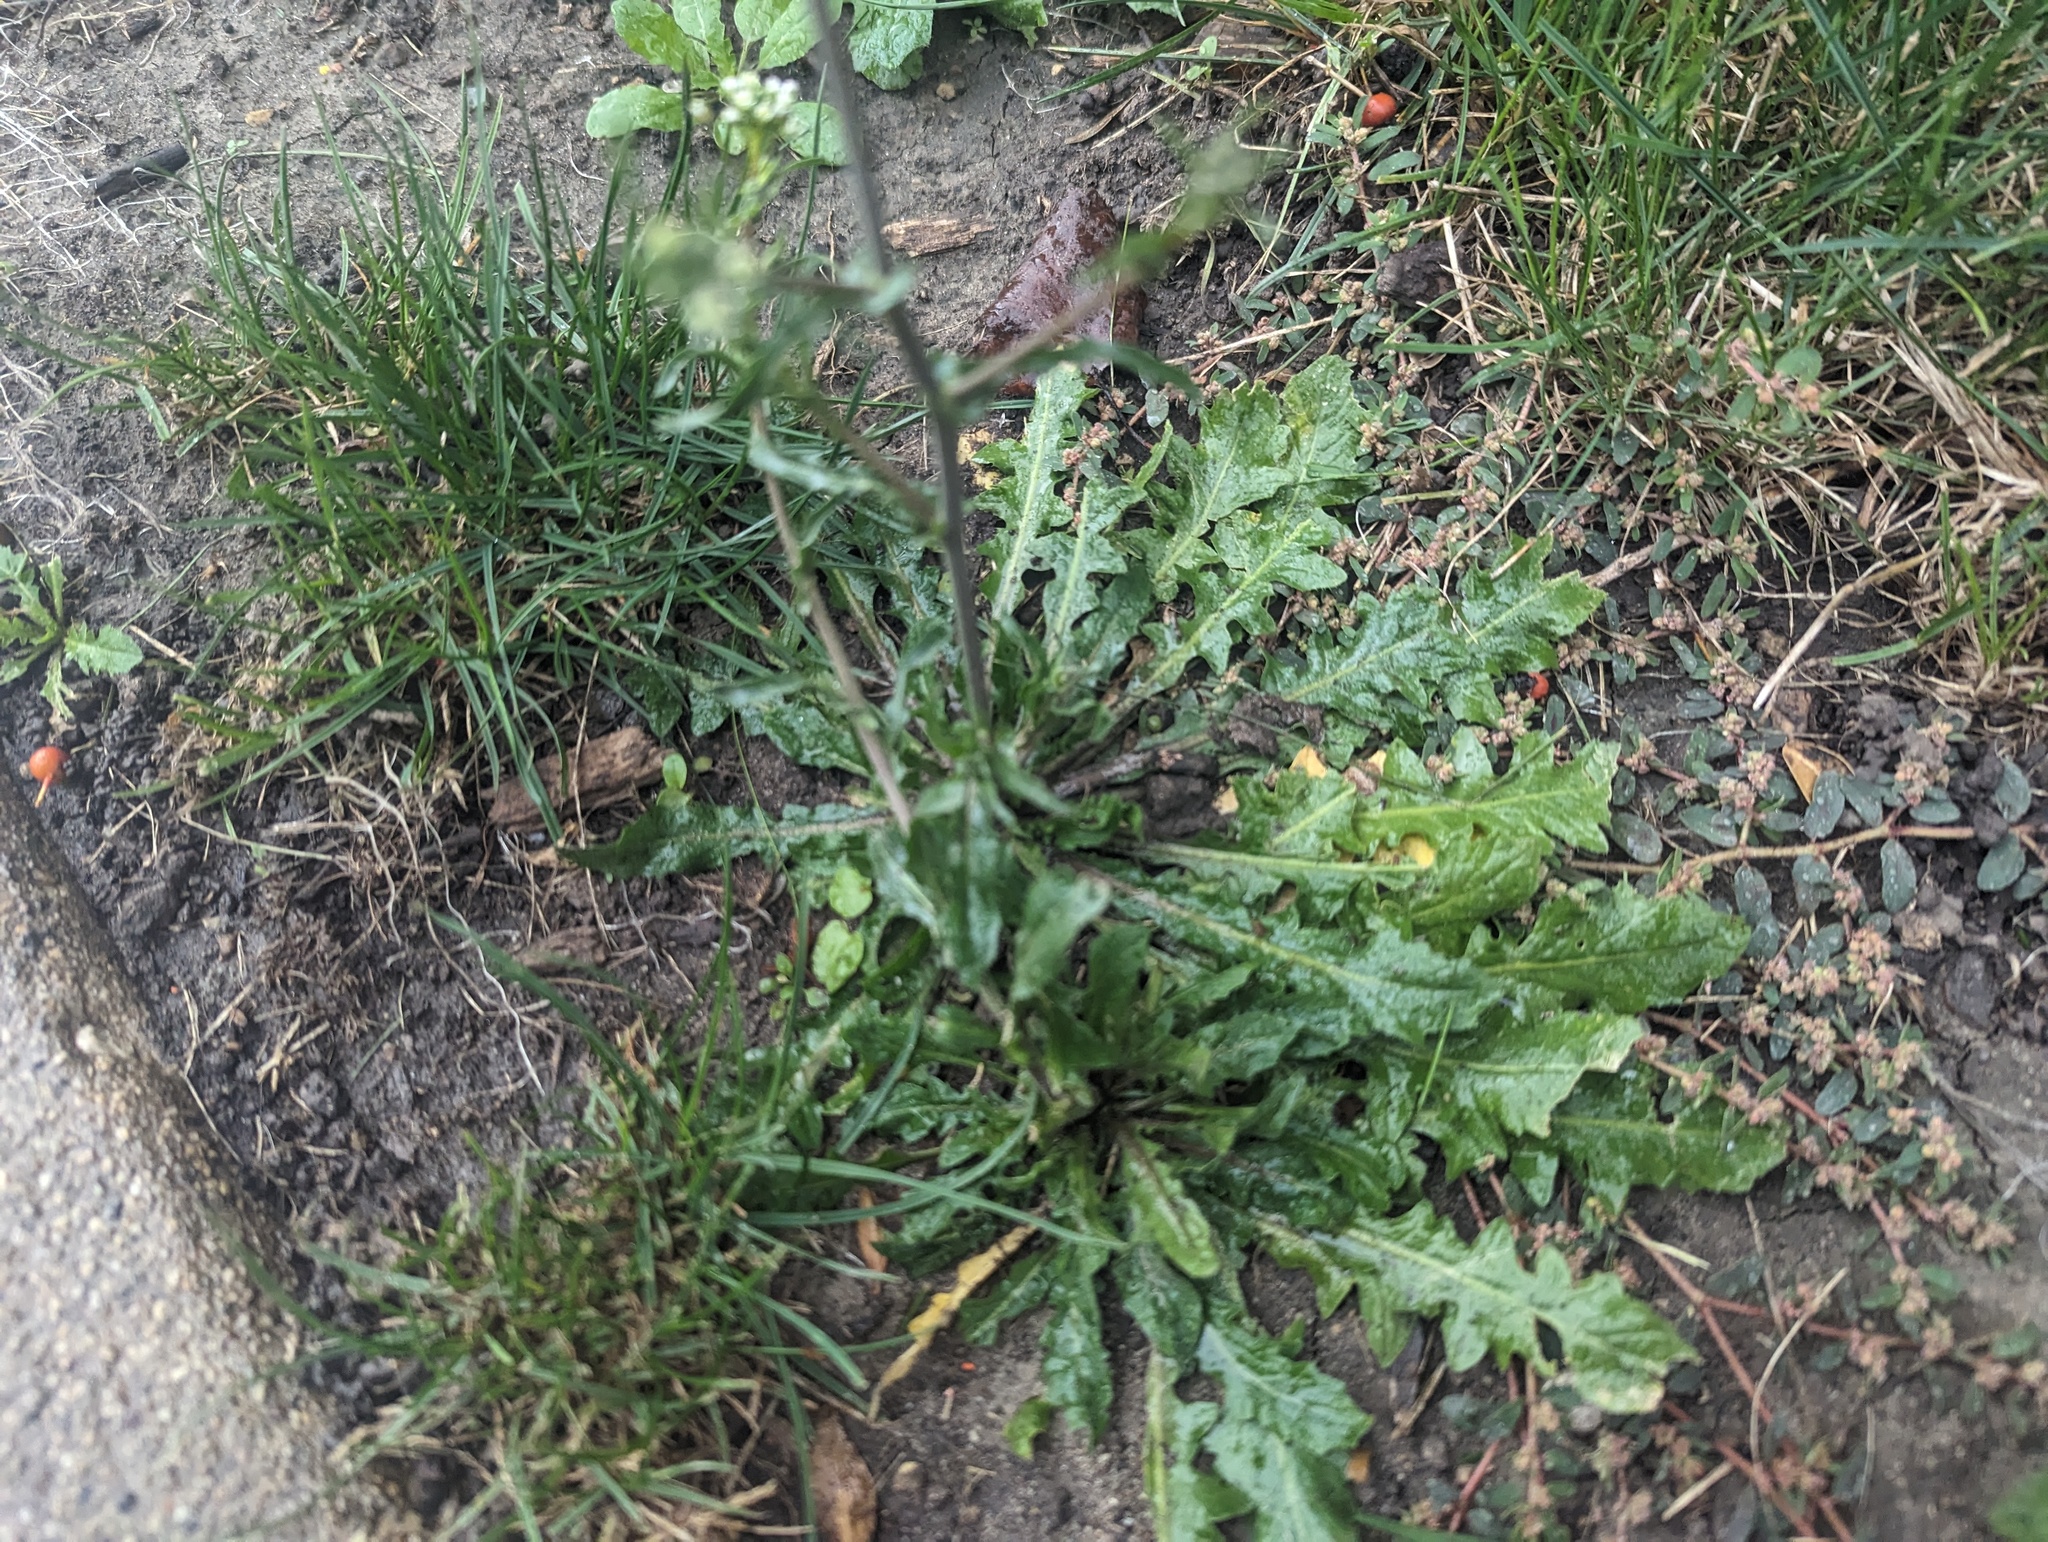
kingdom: Plantae
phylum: Tracheophyta
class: Magnoliopsida
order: Brassicales
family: Brassicaceae
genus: Capsella
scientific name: Capsella bursa-pastoris
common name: Shepherd's purse
